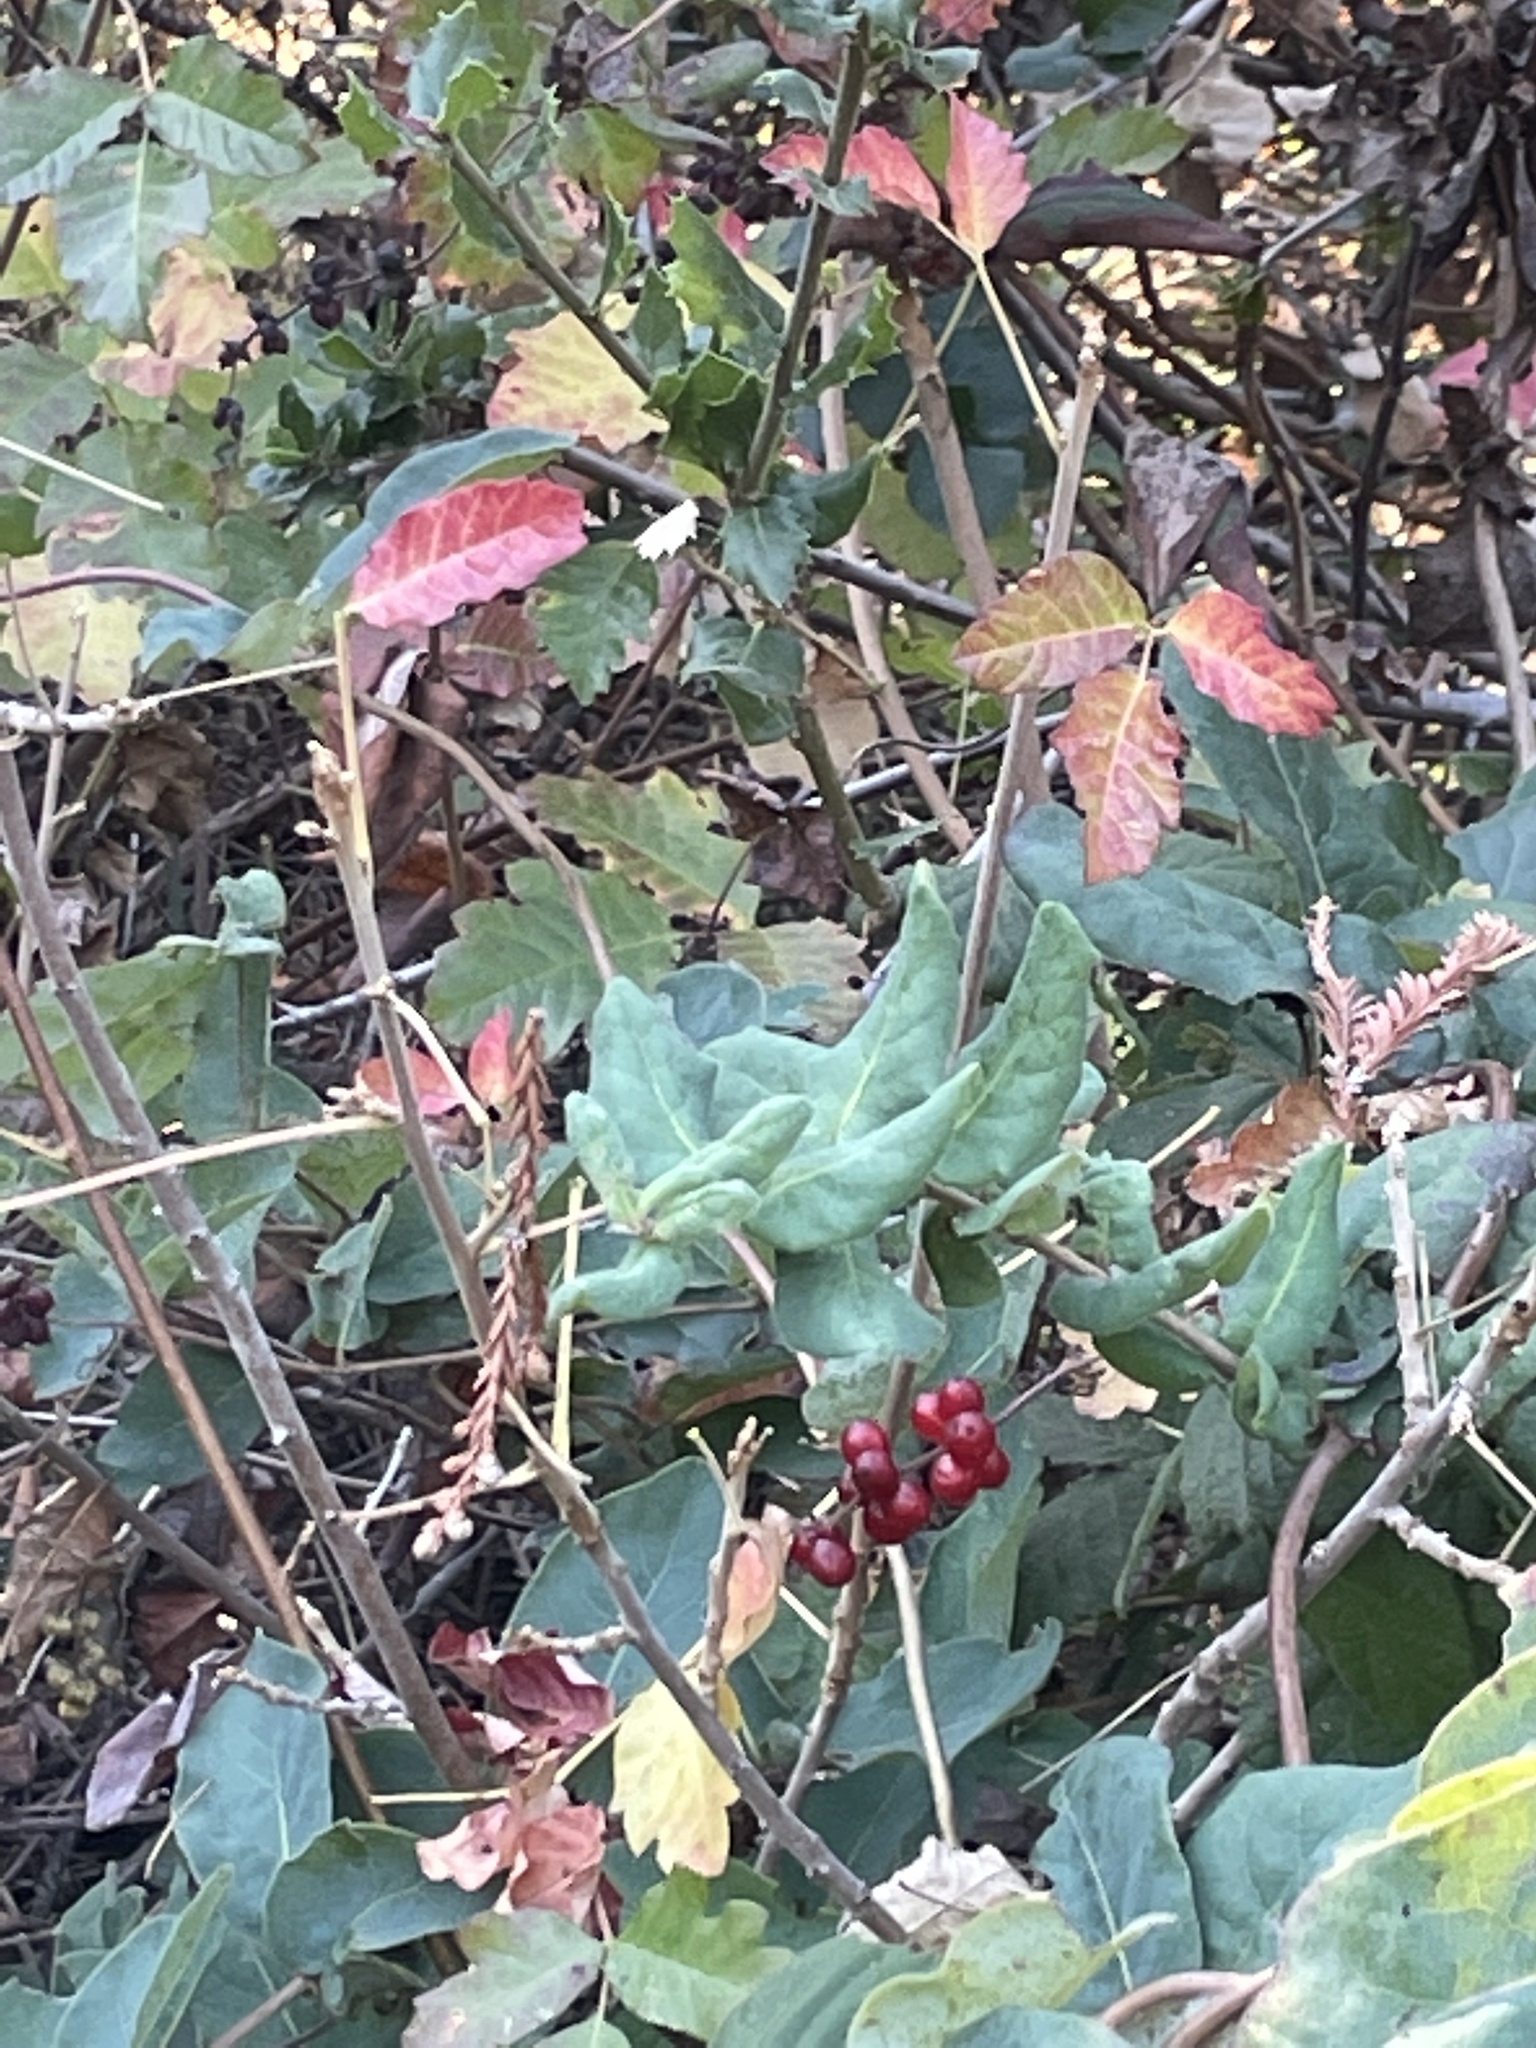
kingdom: Plantae
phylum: Tracheophyta
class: Magnoliopsida
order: Dipsacales
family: Caprifoliaceae
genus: Lonicera
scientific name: Lonicera hispidula
